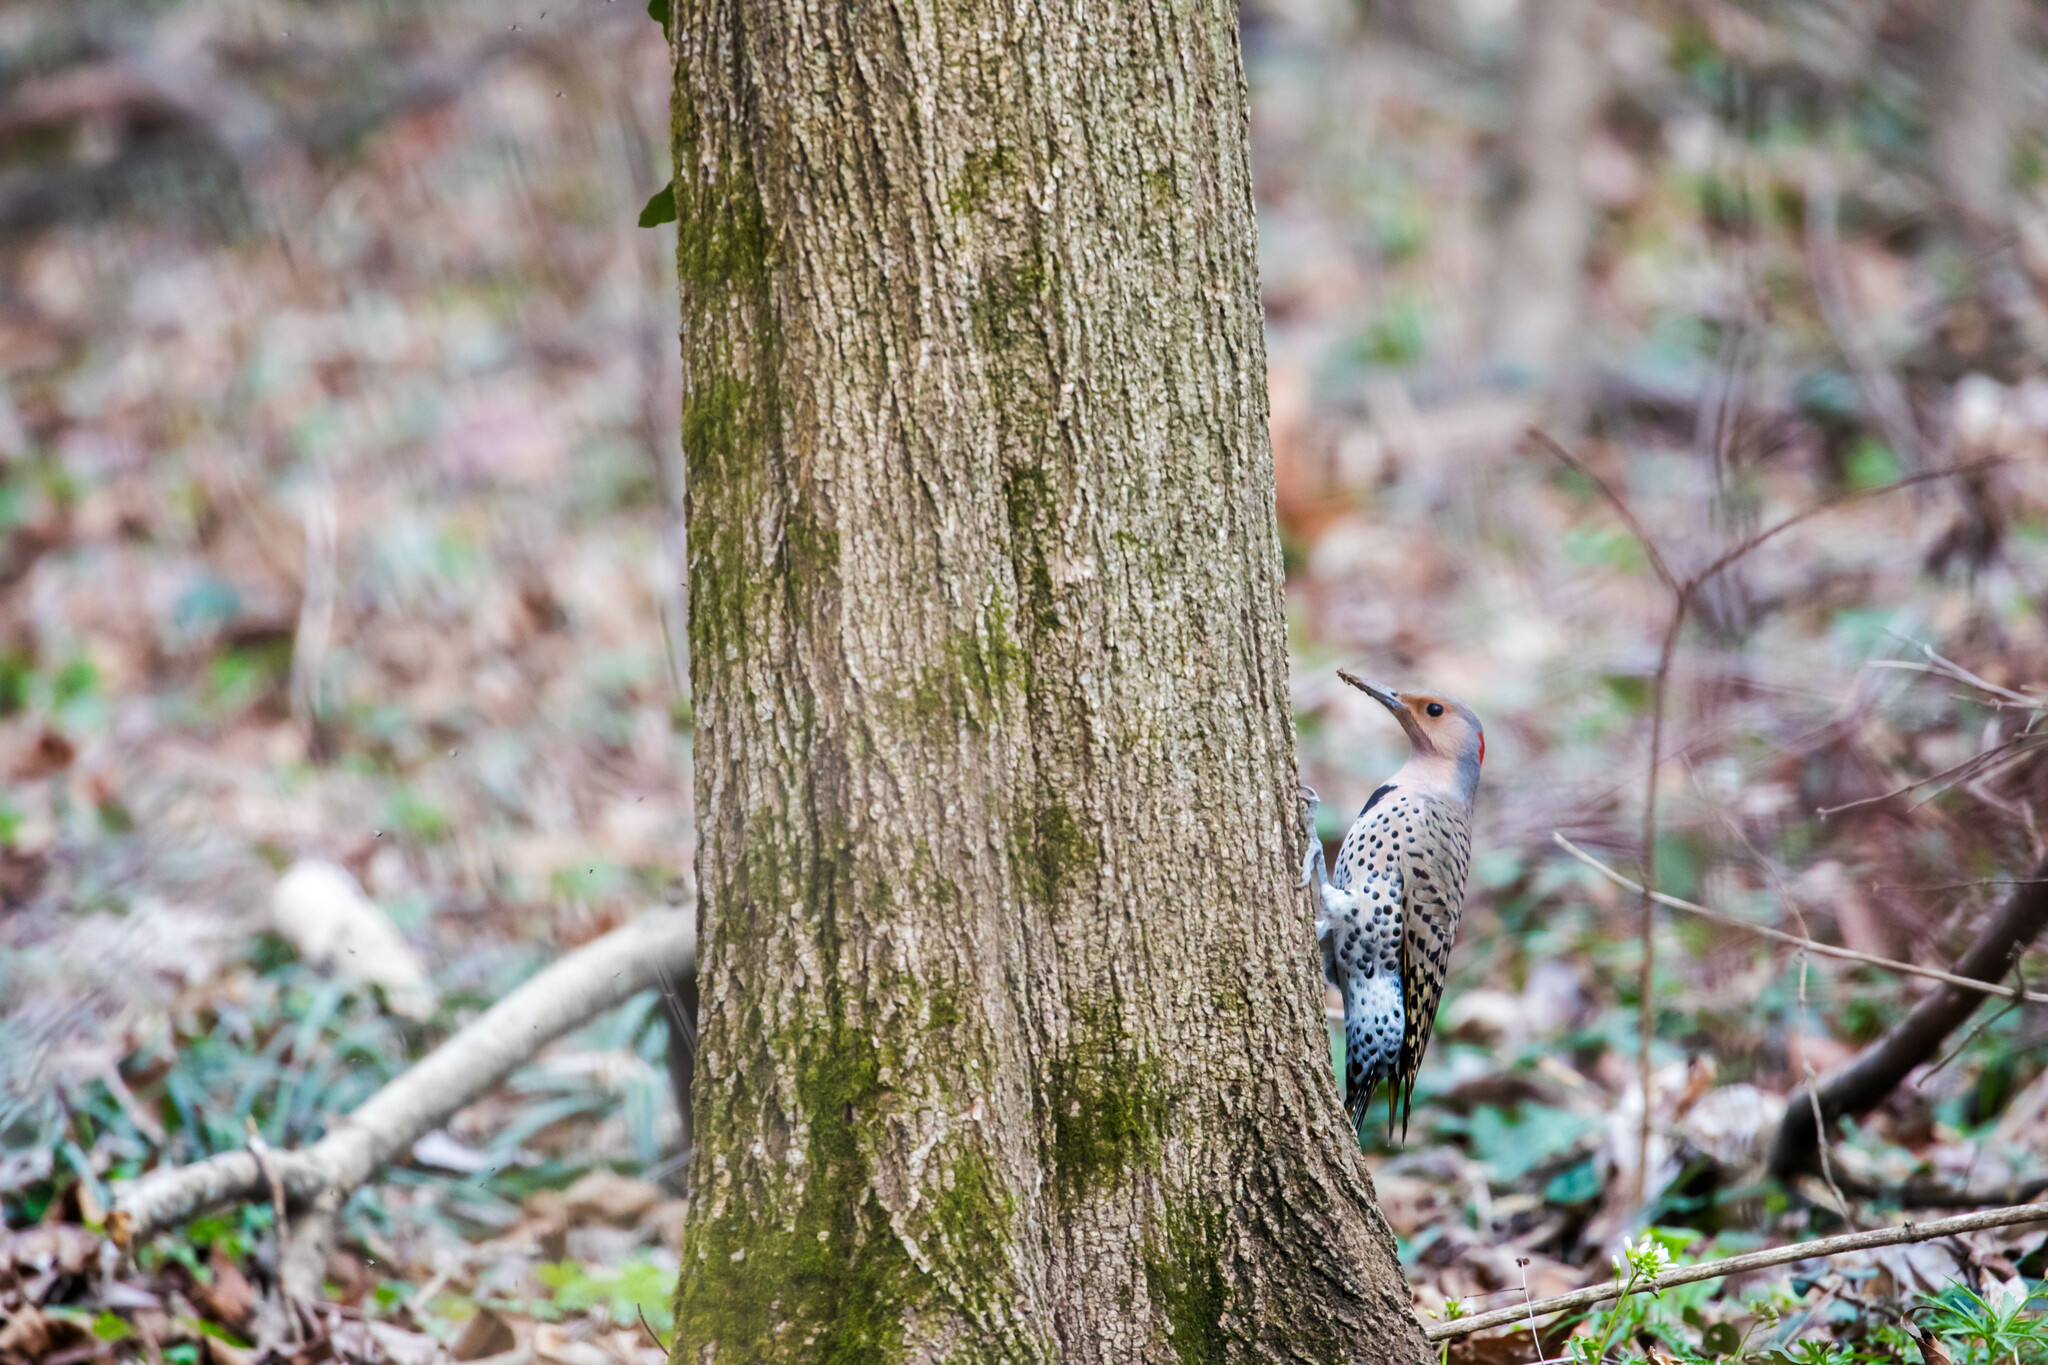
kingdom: Animalia
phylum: Chordata
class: Aves
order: Piciformes
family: Picidae
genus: Colaptes
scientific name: Colaptes auratus
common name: Northern flicker
